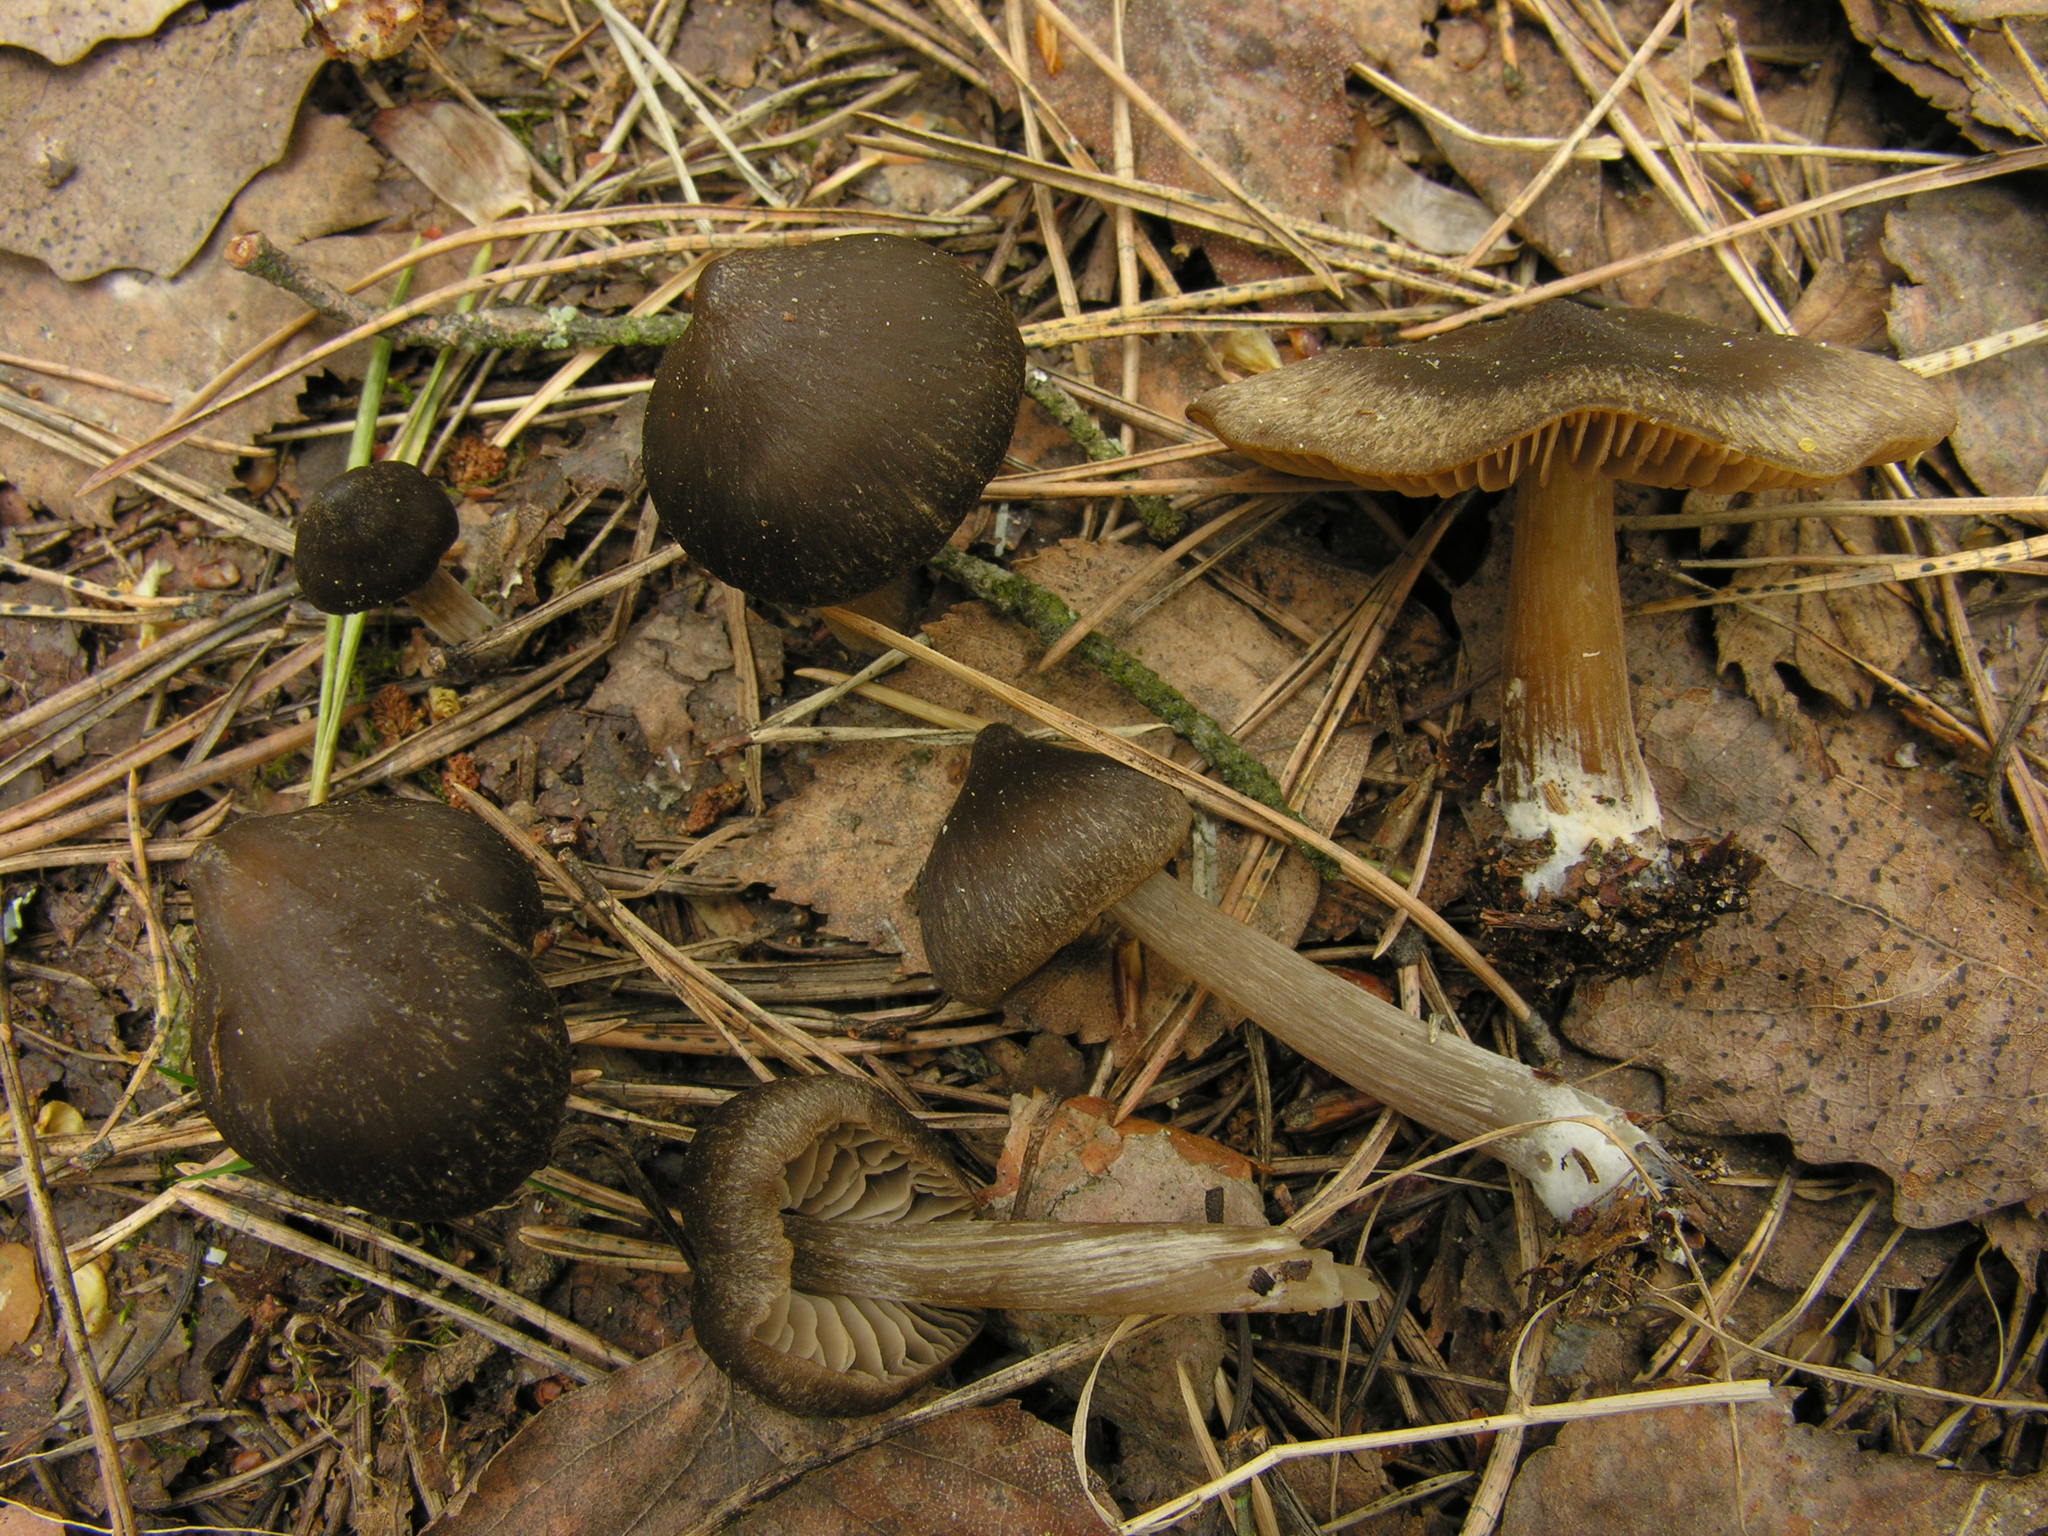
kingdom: Fungi
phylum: Basidiomycota
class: Agaricomycetes
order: Agaricales
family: Entolomataceae
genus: Entoloma
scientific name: Entoloma vernum
